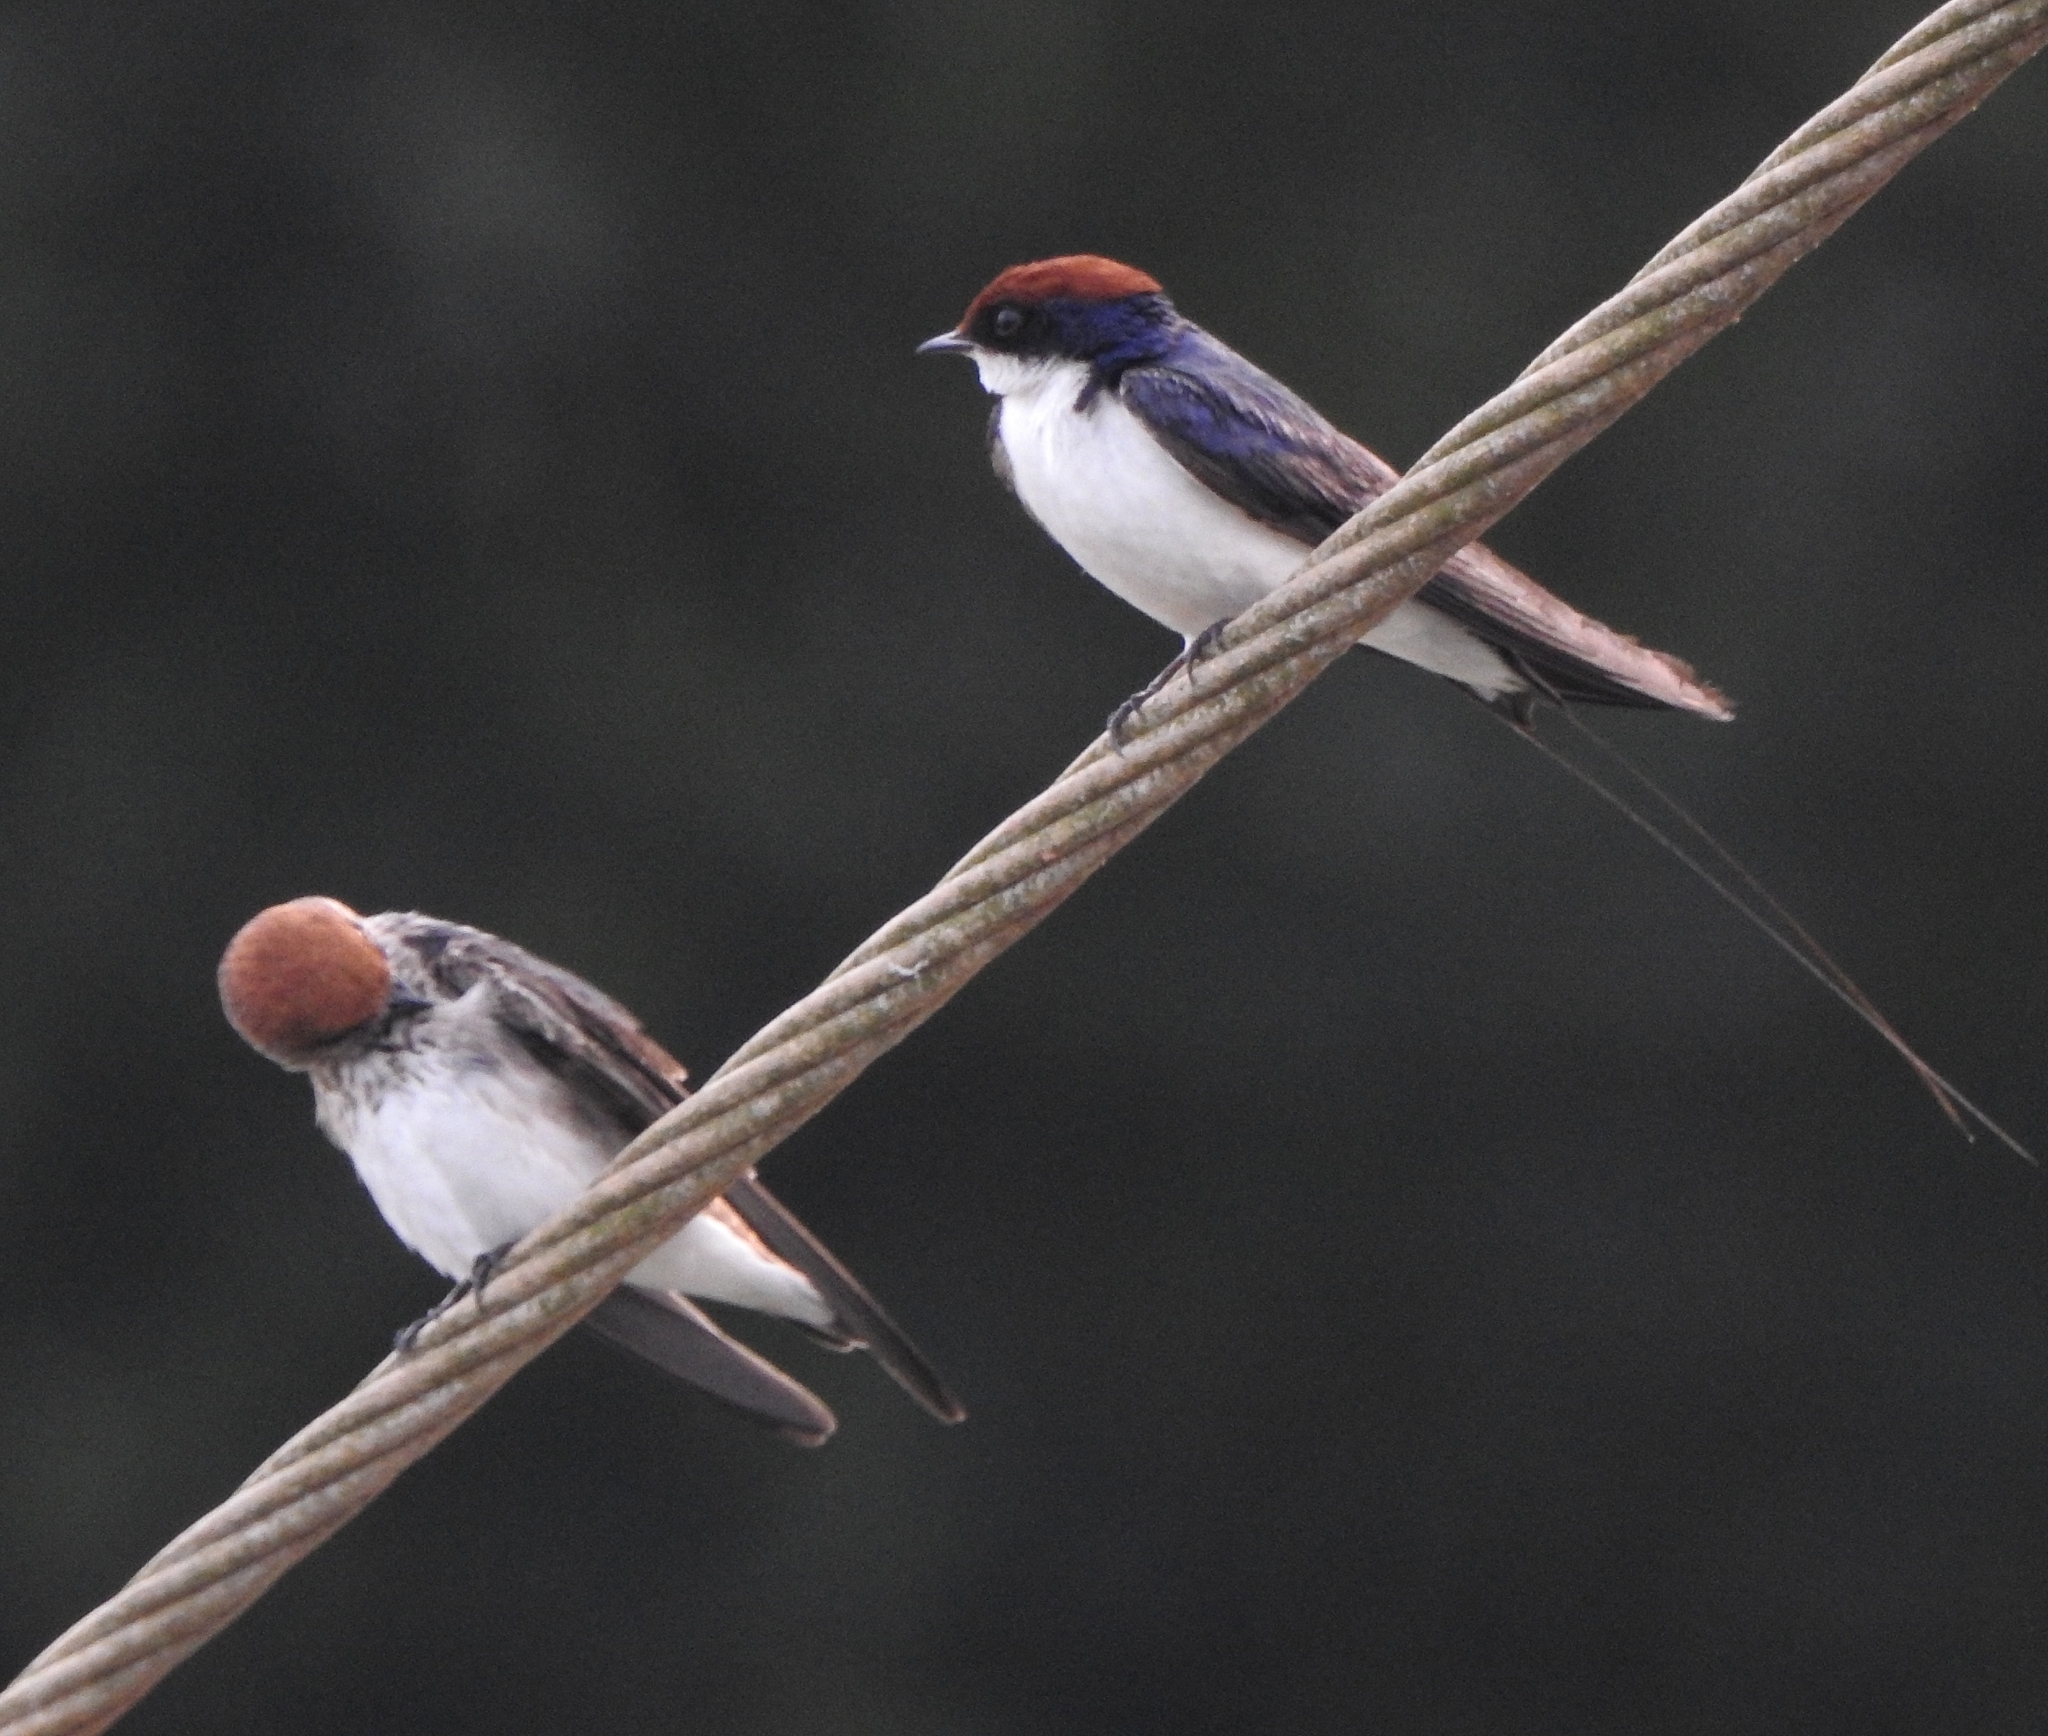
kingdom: Animalia
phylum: Chordata
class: Aves
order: Passeriformes
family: Hirundinidae
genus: Hirundo
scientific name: Hirundo smithii
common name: Wire-tailed swallow
